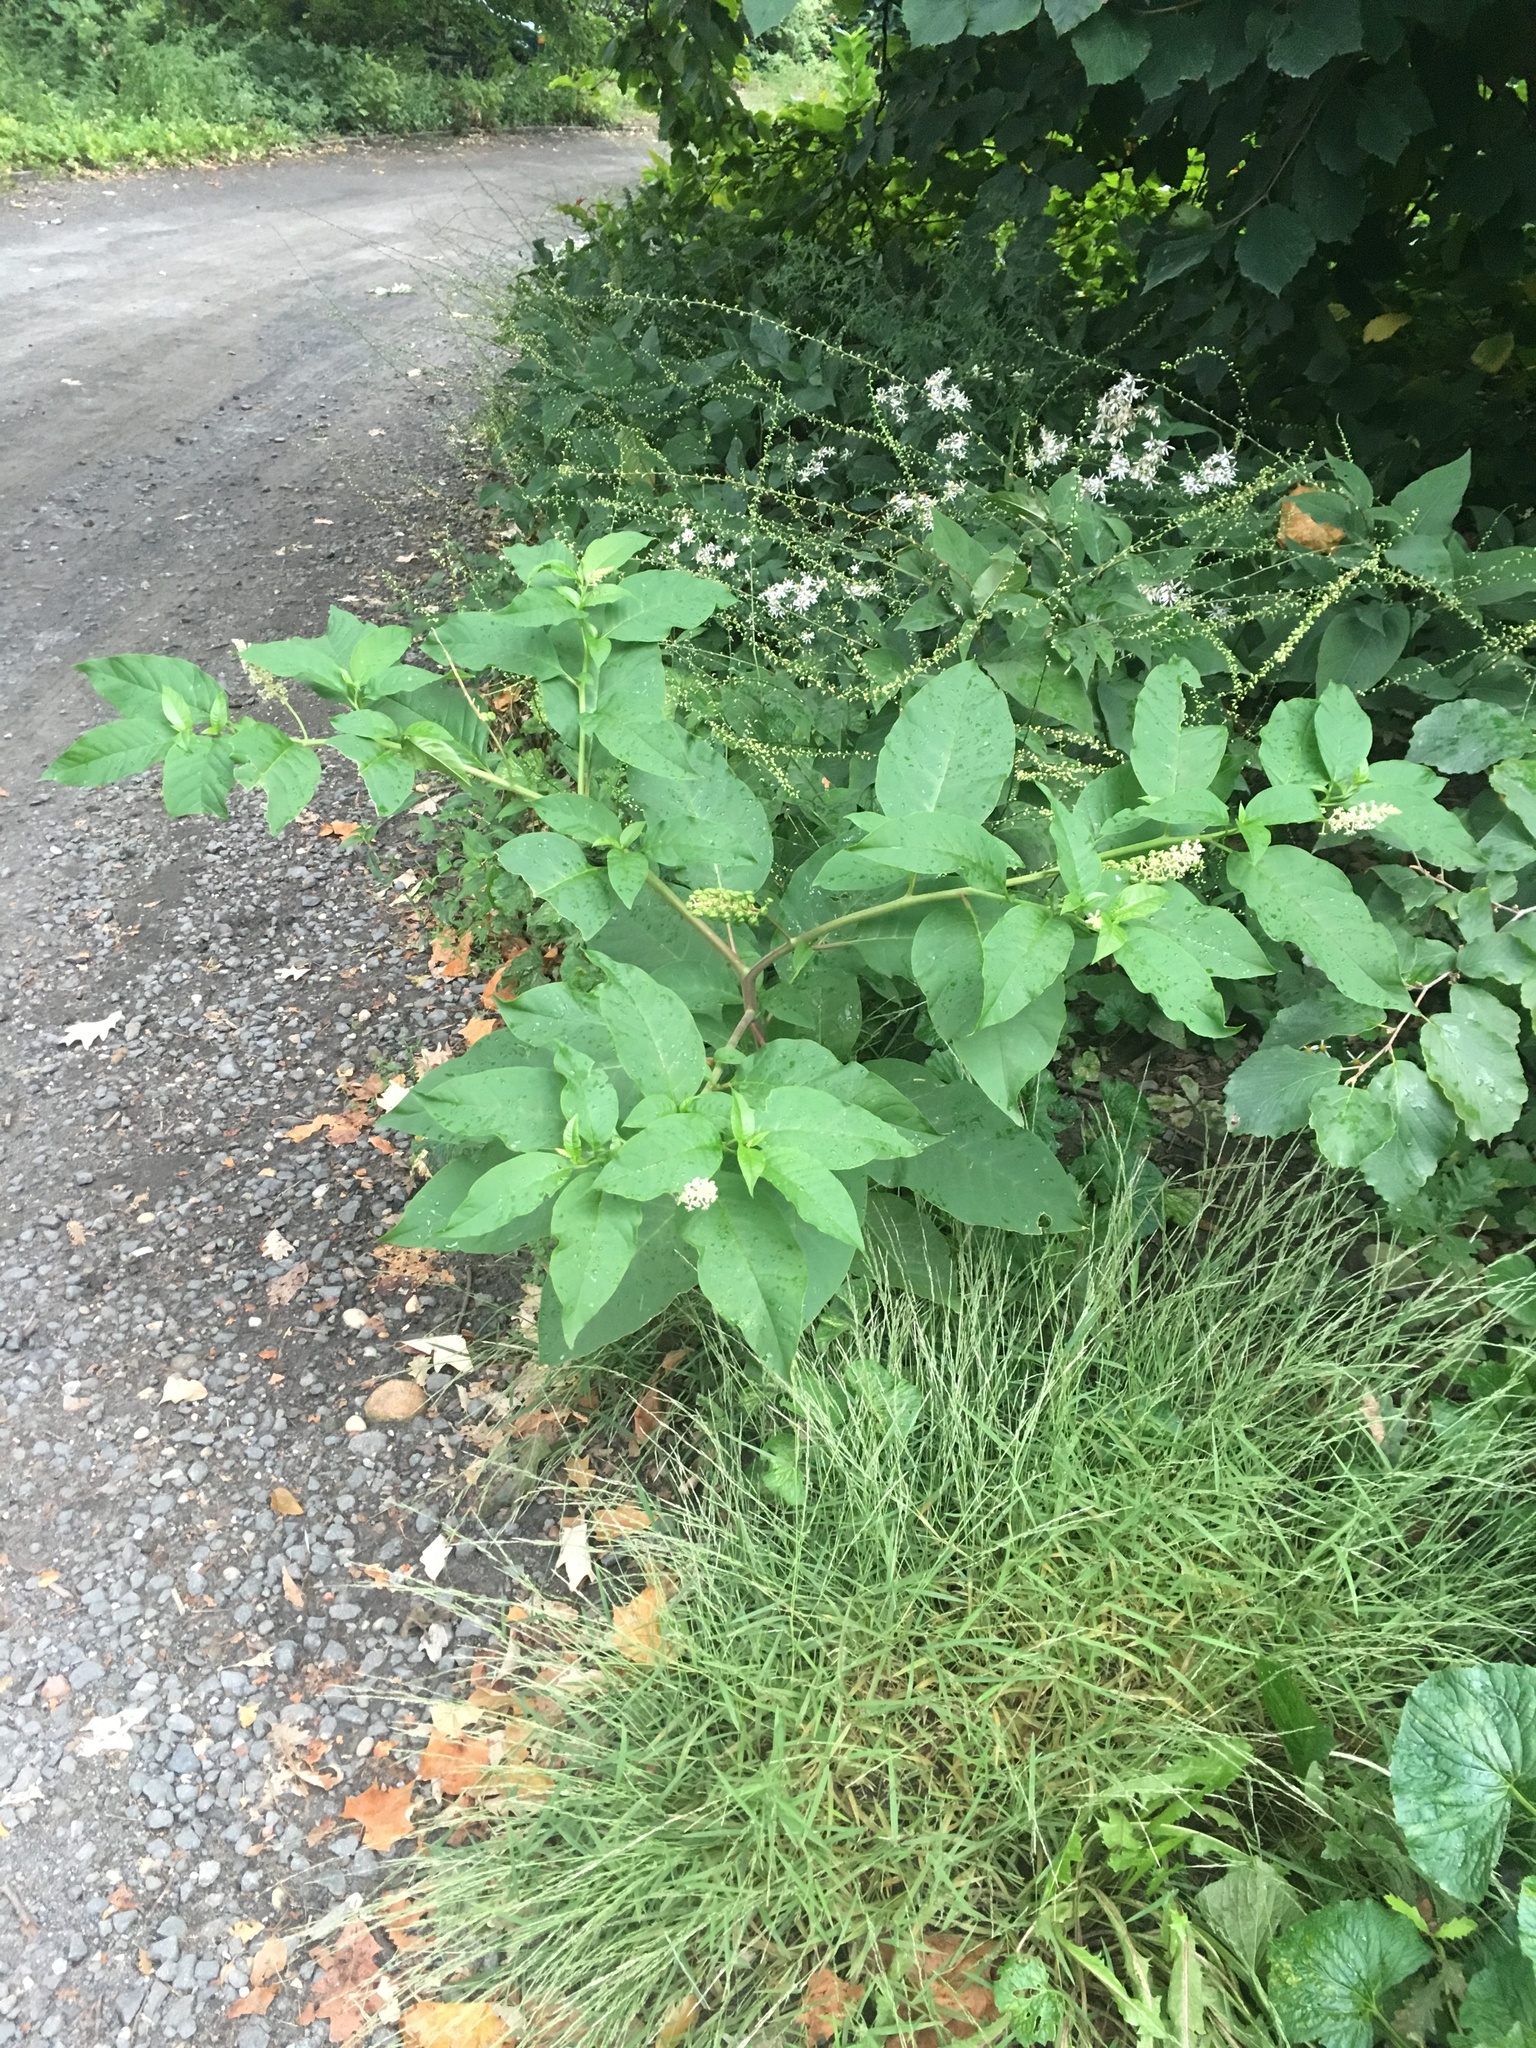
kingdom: Plantae
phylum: Tracheophyta
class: Magnoliopsida
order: Caryophyllales
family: Phytolaccaceae
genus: Phytolacca
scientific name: Phytolacca americana
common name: American pokeweed
